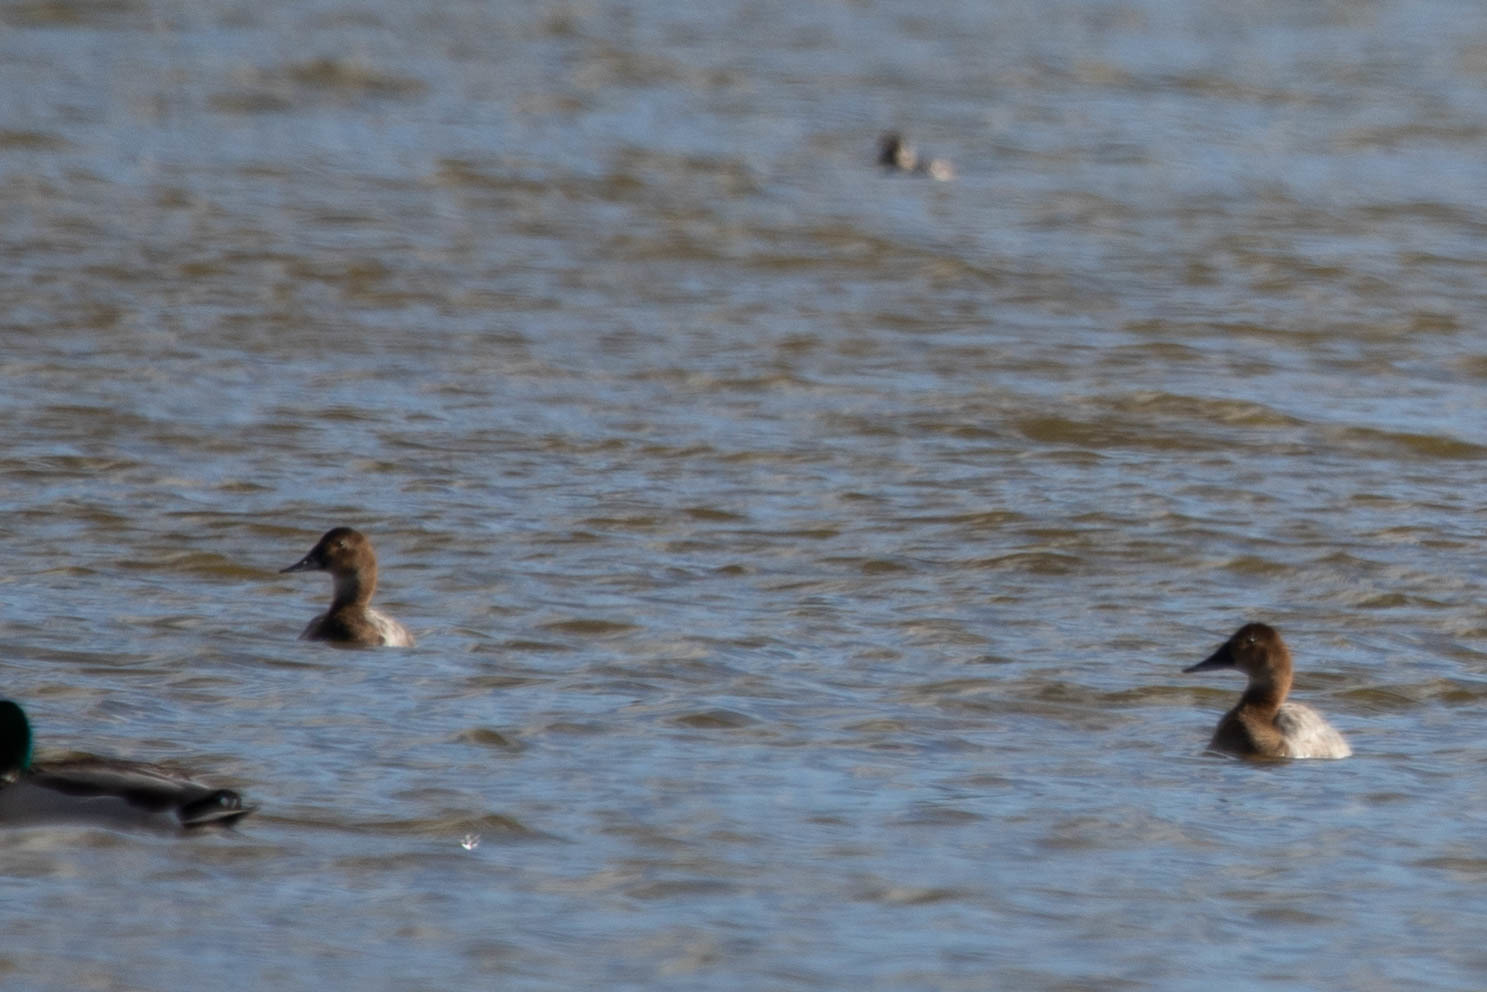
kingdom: Animalia
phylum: Chordata
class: Aves
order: Anseriformes
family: Anatidae
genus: Aythya
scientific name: Aythya valisineria
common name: Canvasback
